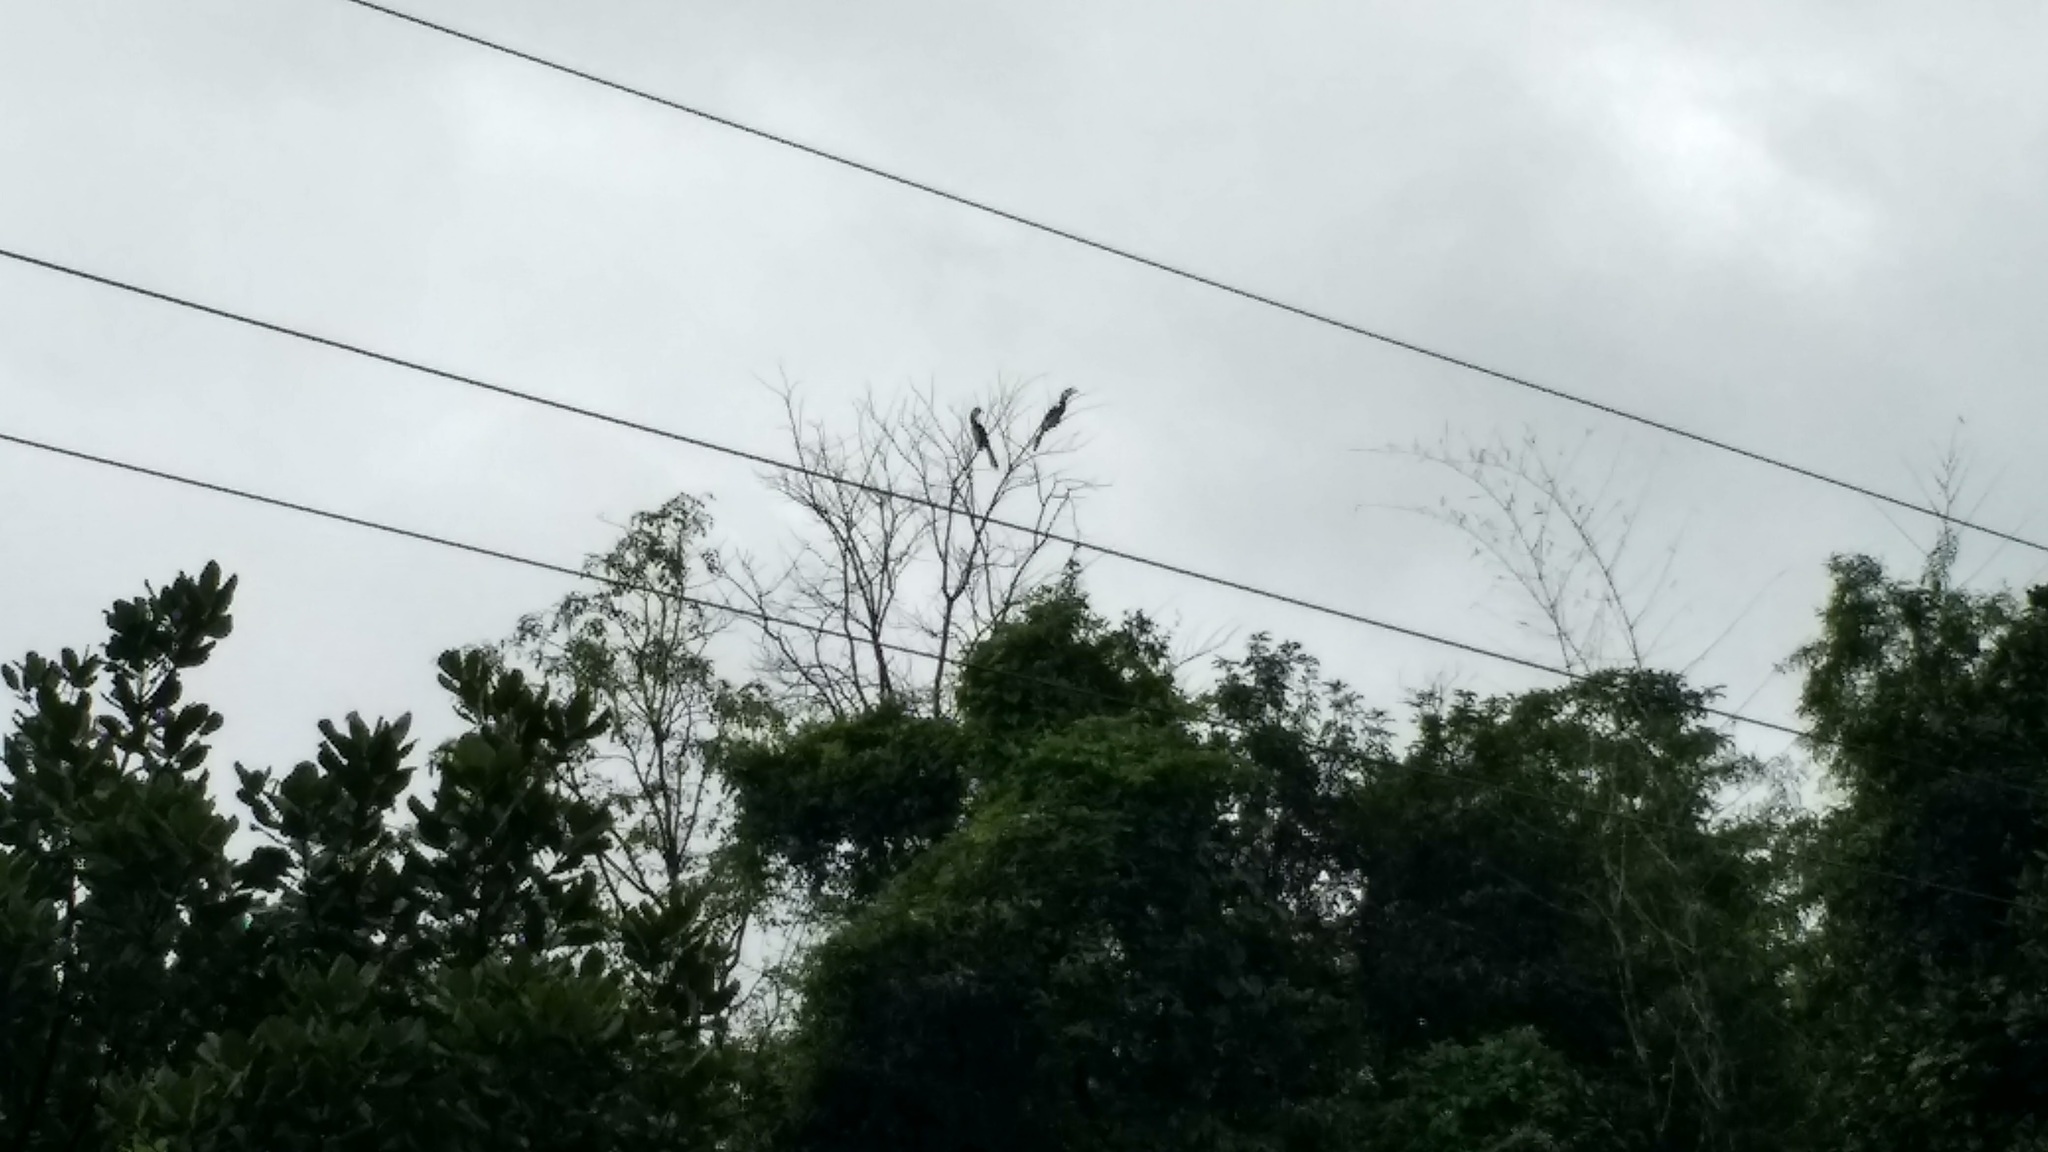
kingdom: Animalia
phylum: Chordata
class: Aves
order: Bucerotiformes
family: Bucerotidae
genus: Anthracoceros
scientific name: Anthracoceros coronatus
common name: Malabar pied hornbill
